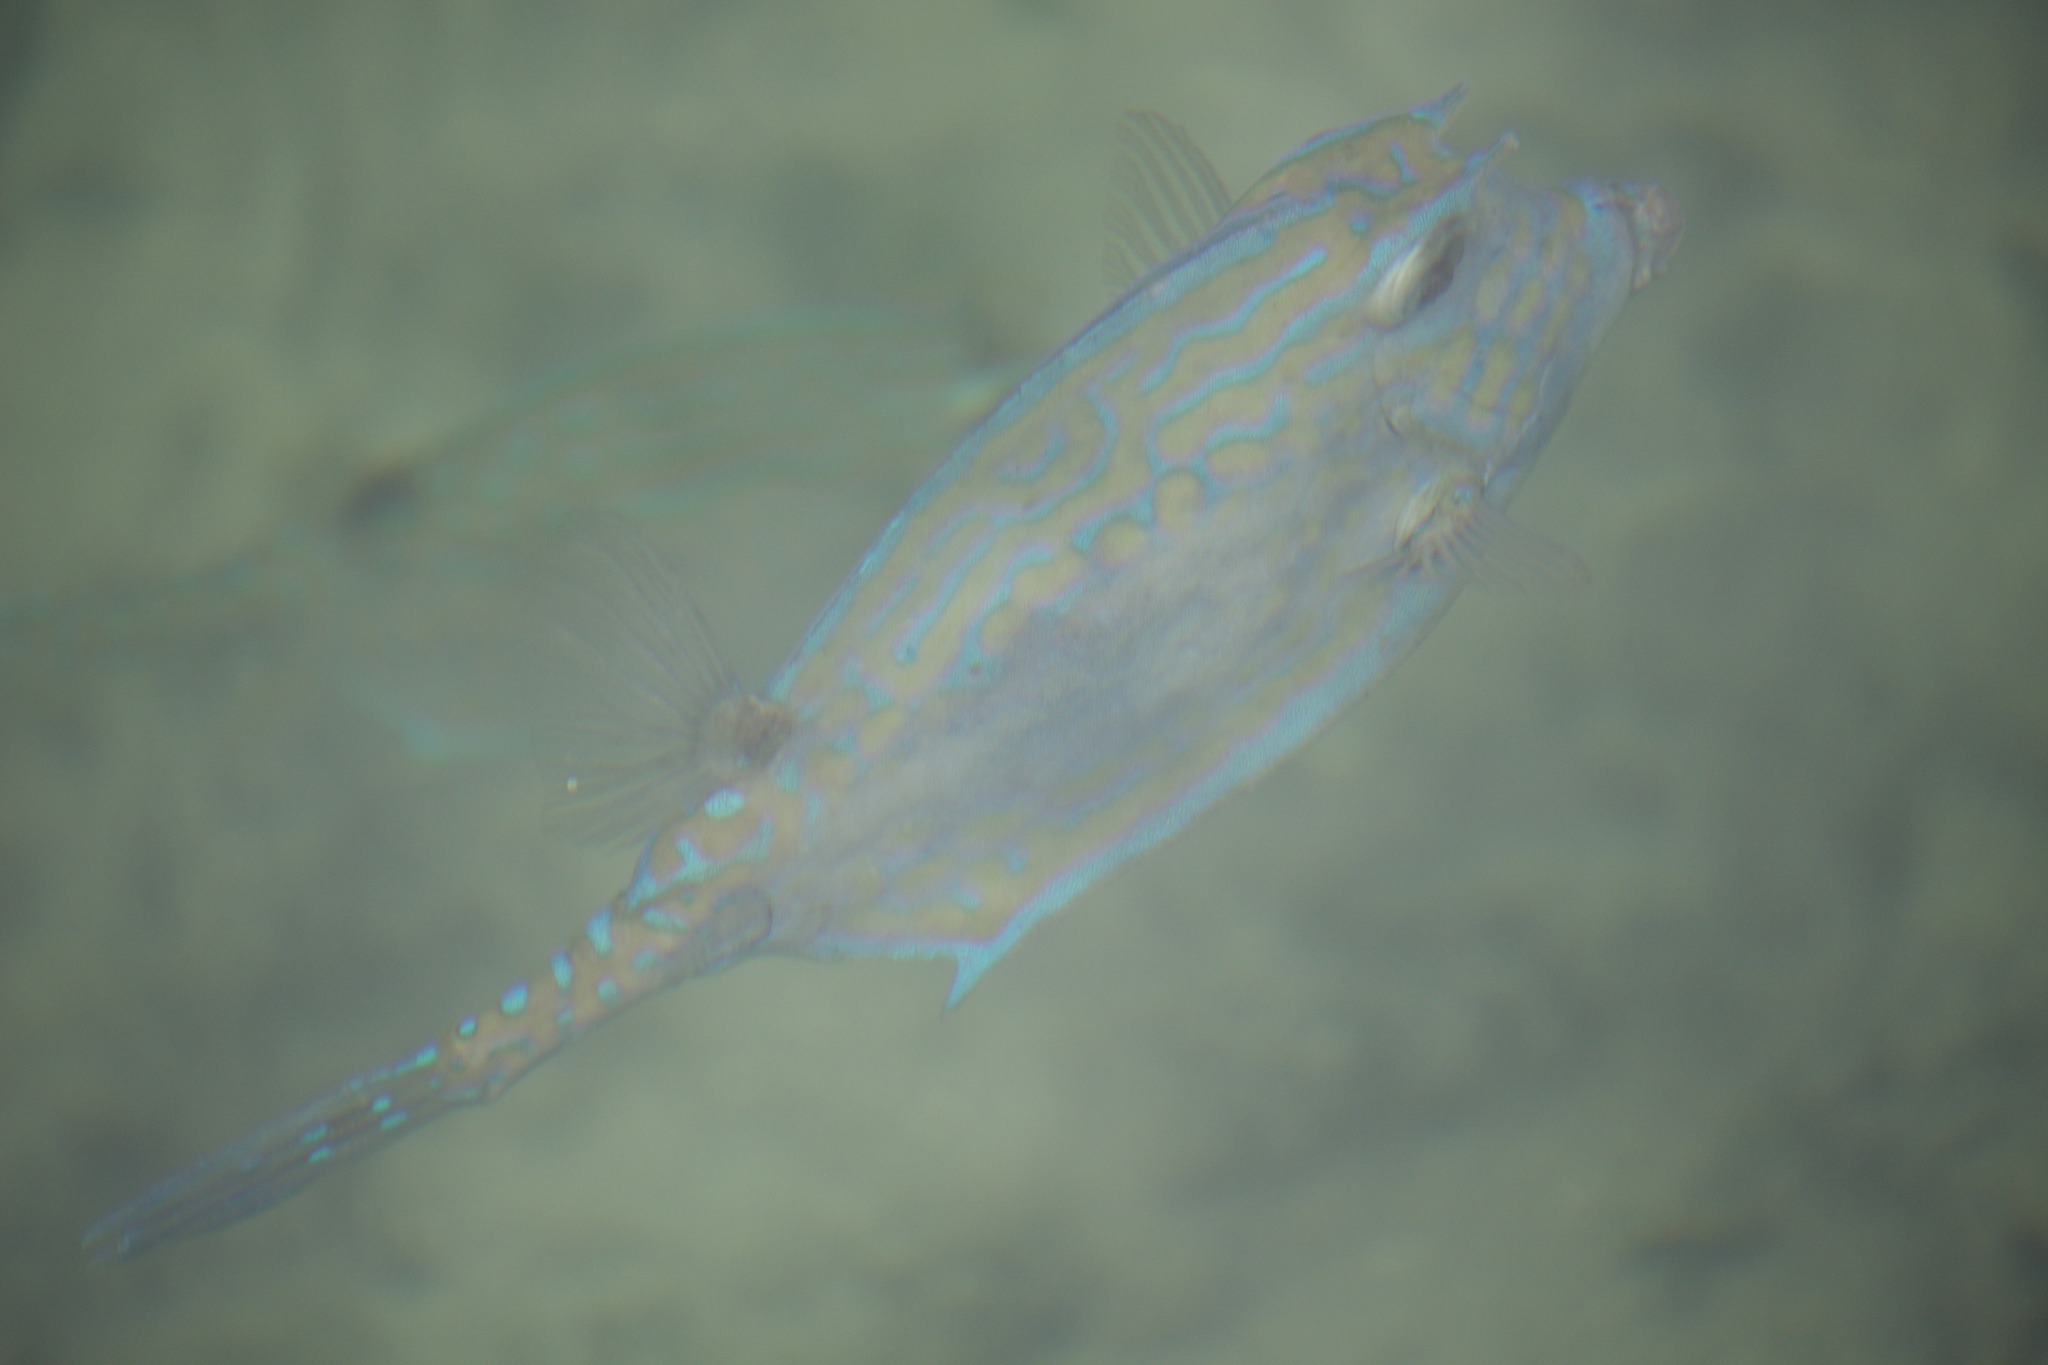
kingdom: Animalia
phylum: Chordata
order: Tetraodontiformes
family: Ostraciidae
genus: Acanthostracion
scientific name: Acanthostracion quadricornis
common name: Scrawled cowfish
